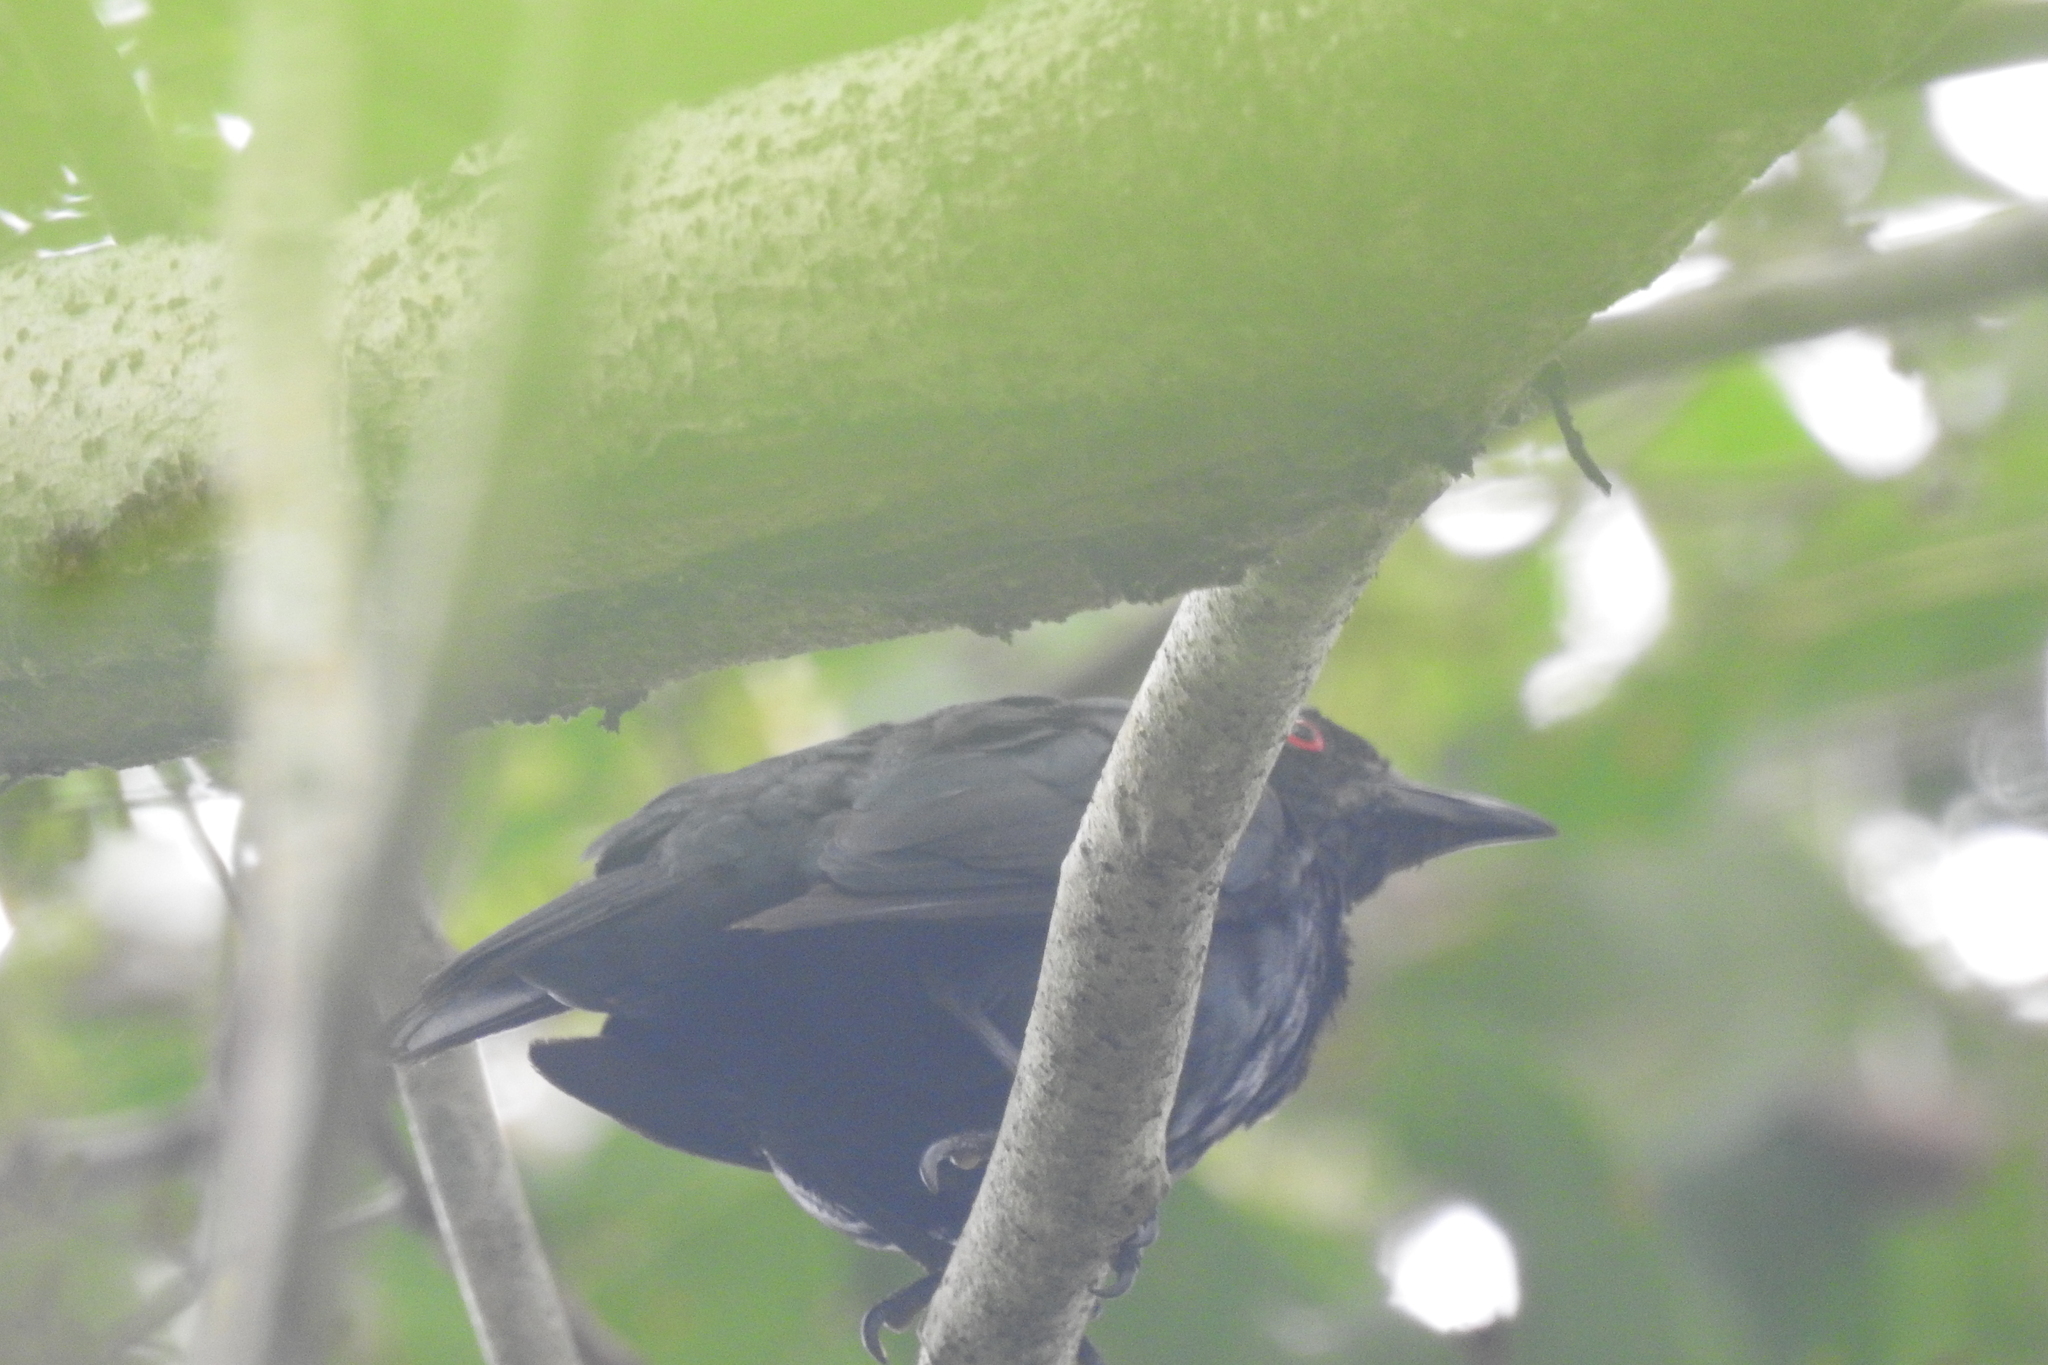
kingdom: Animalia
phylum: Chordata
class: Aves
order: Passeriformes
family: Sturnidae
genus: Aplonis
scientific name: Aplonis panayensis
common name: Asian glossy starling
